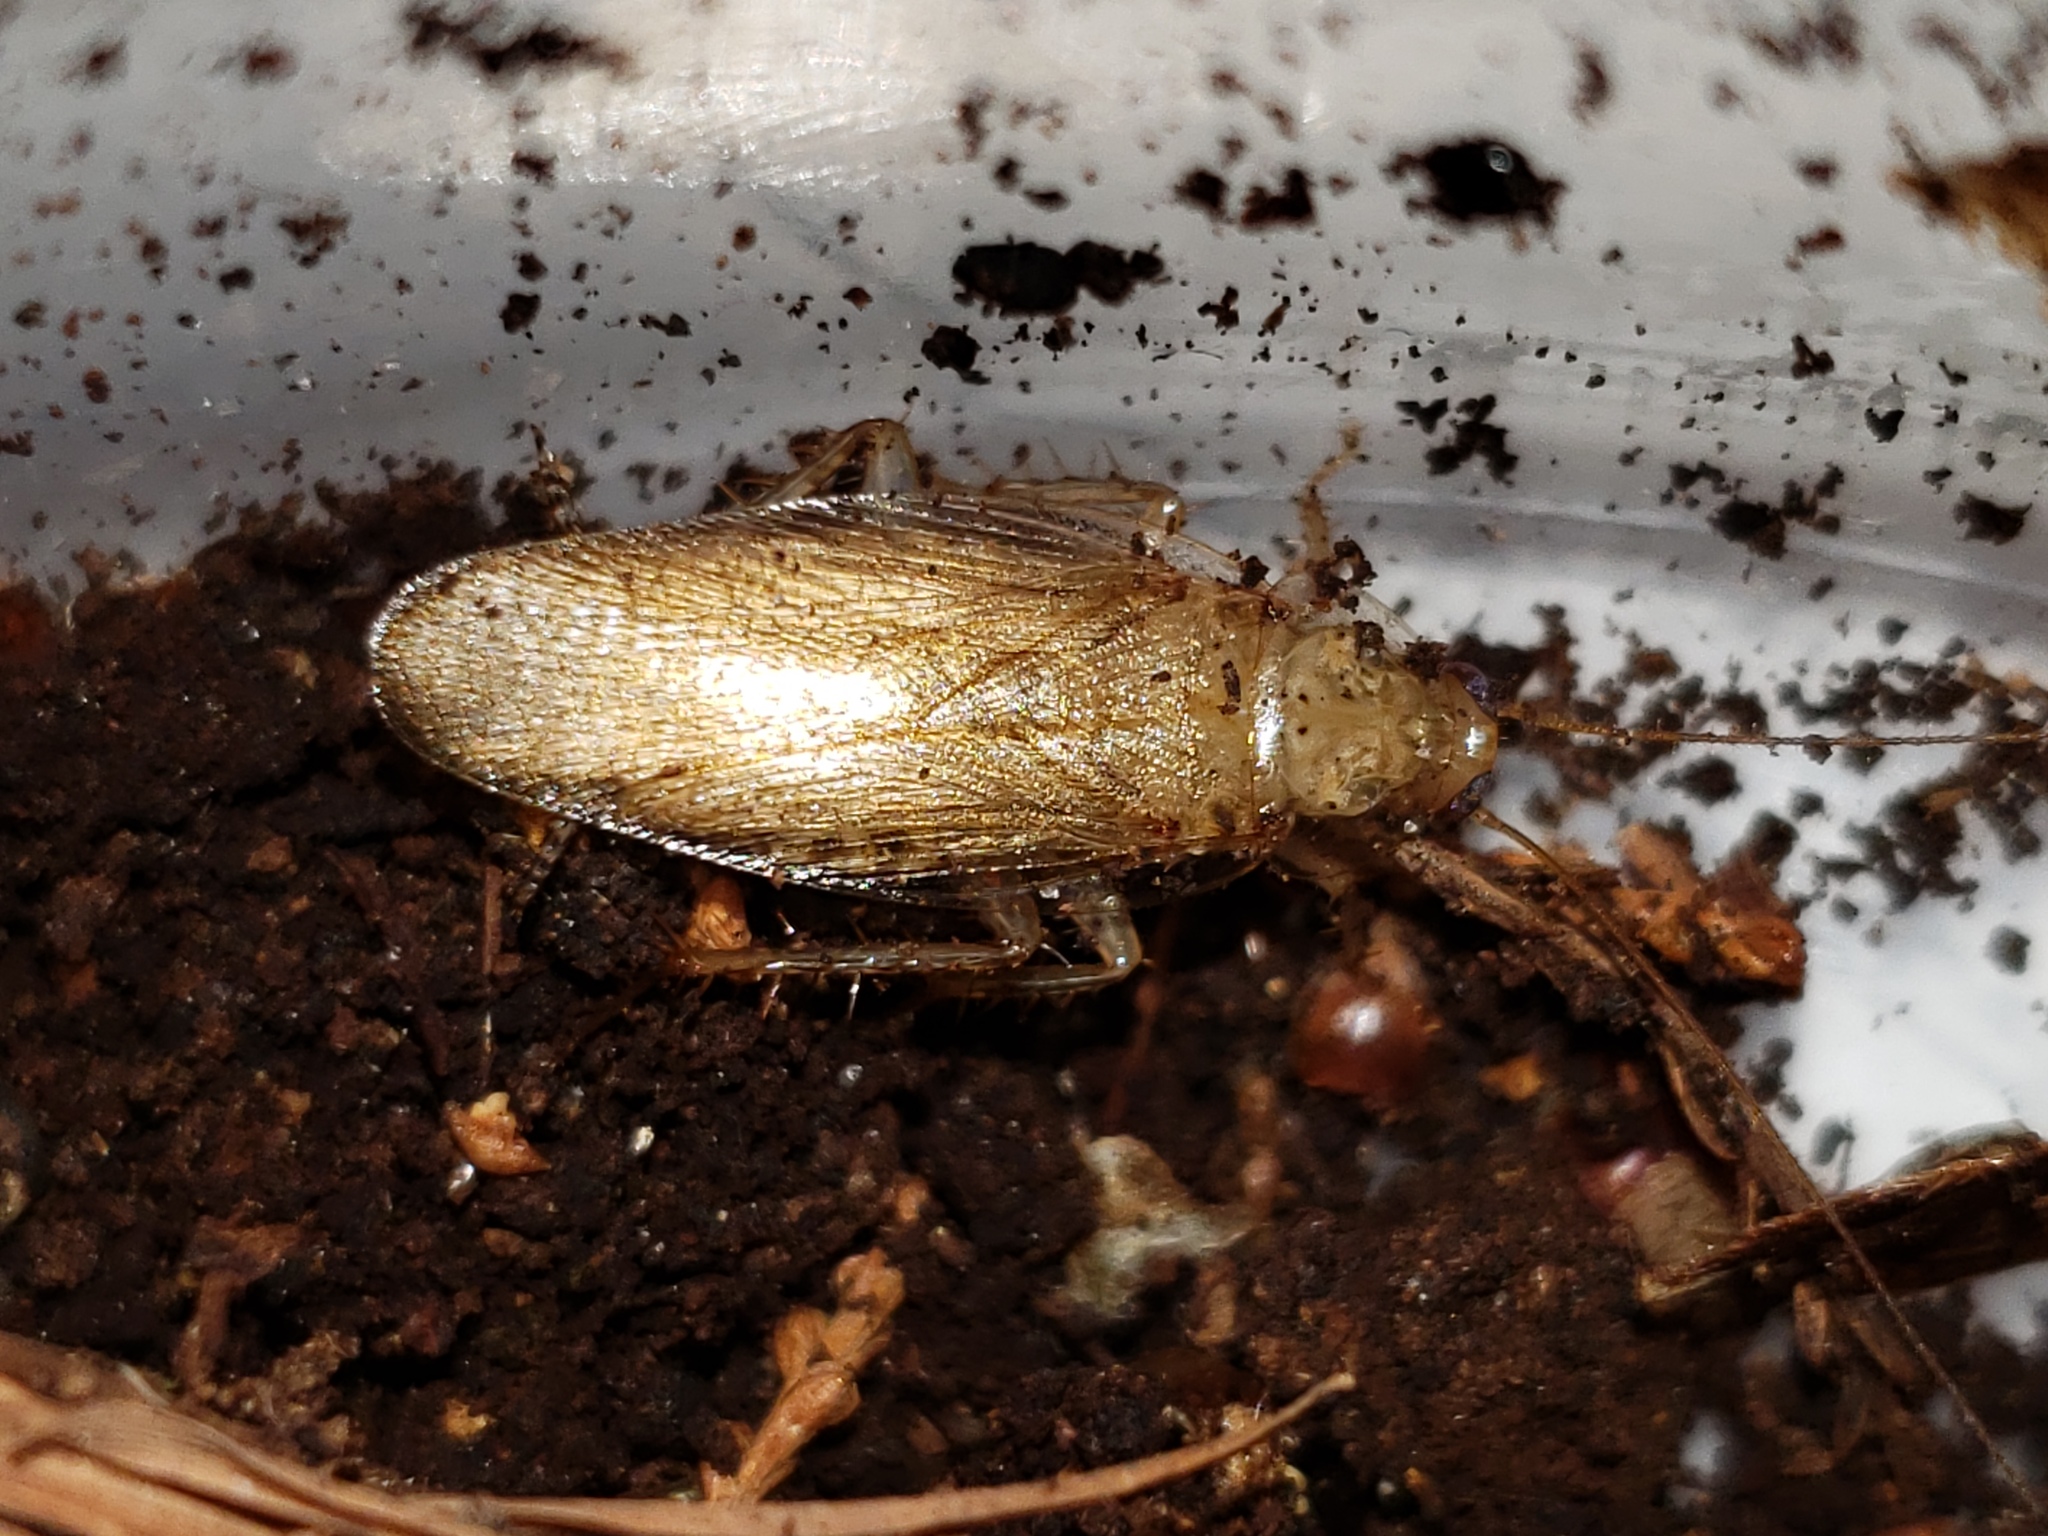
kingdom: Animalia
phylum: Arthropoda
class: Insecta
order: Blattodea
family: Ectobiidae
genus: Latiblattella
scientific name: Latiblattella rehni
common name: Rehn's cockroach
